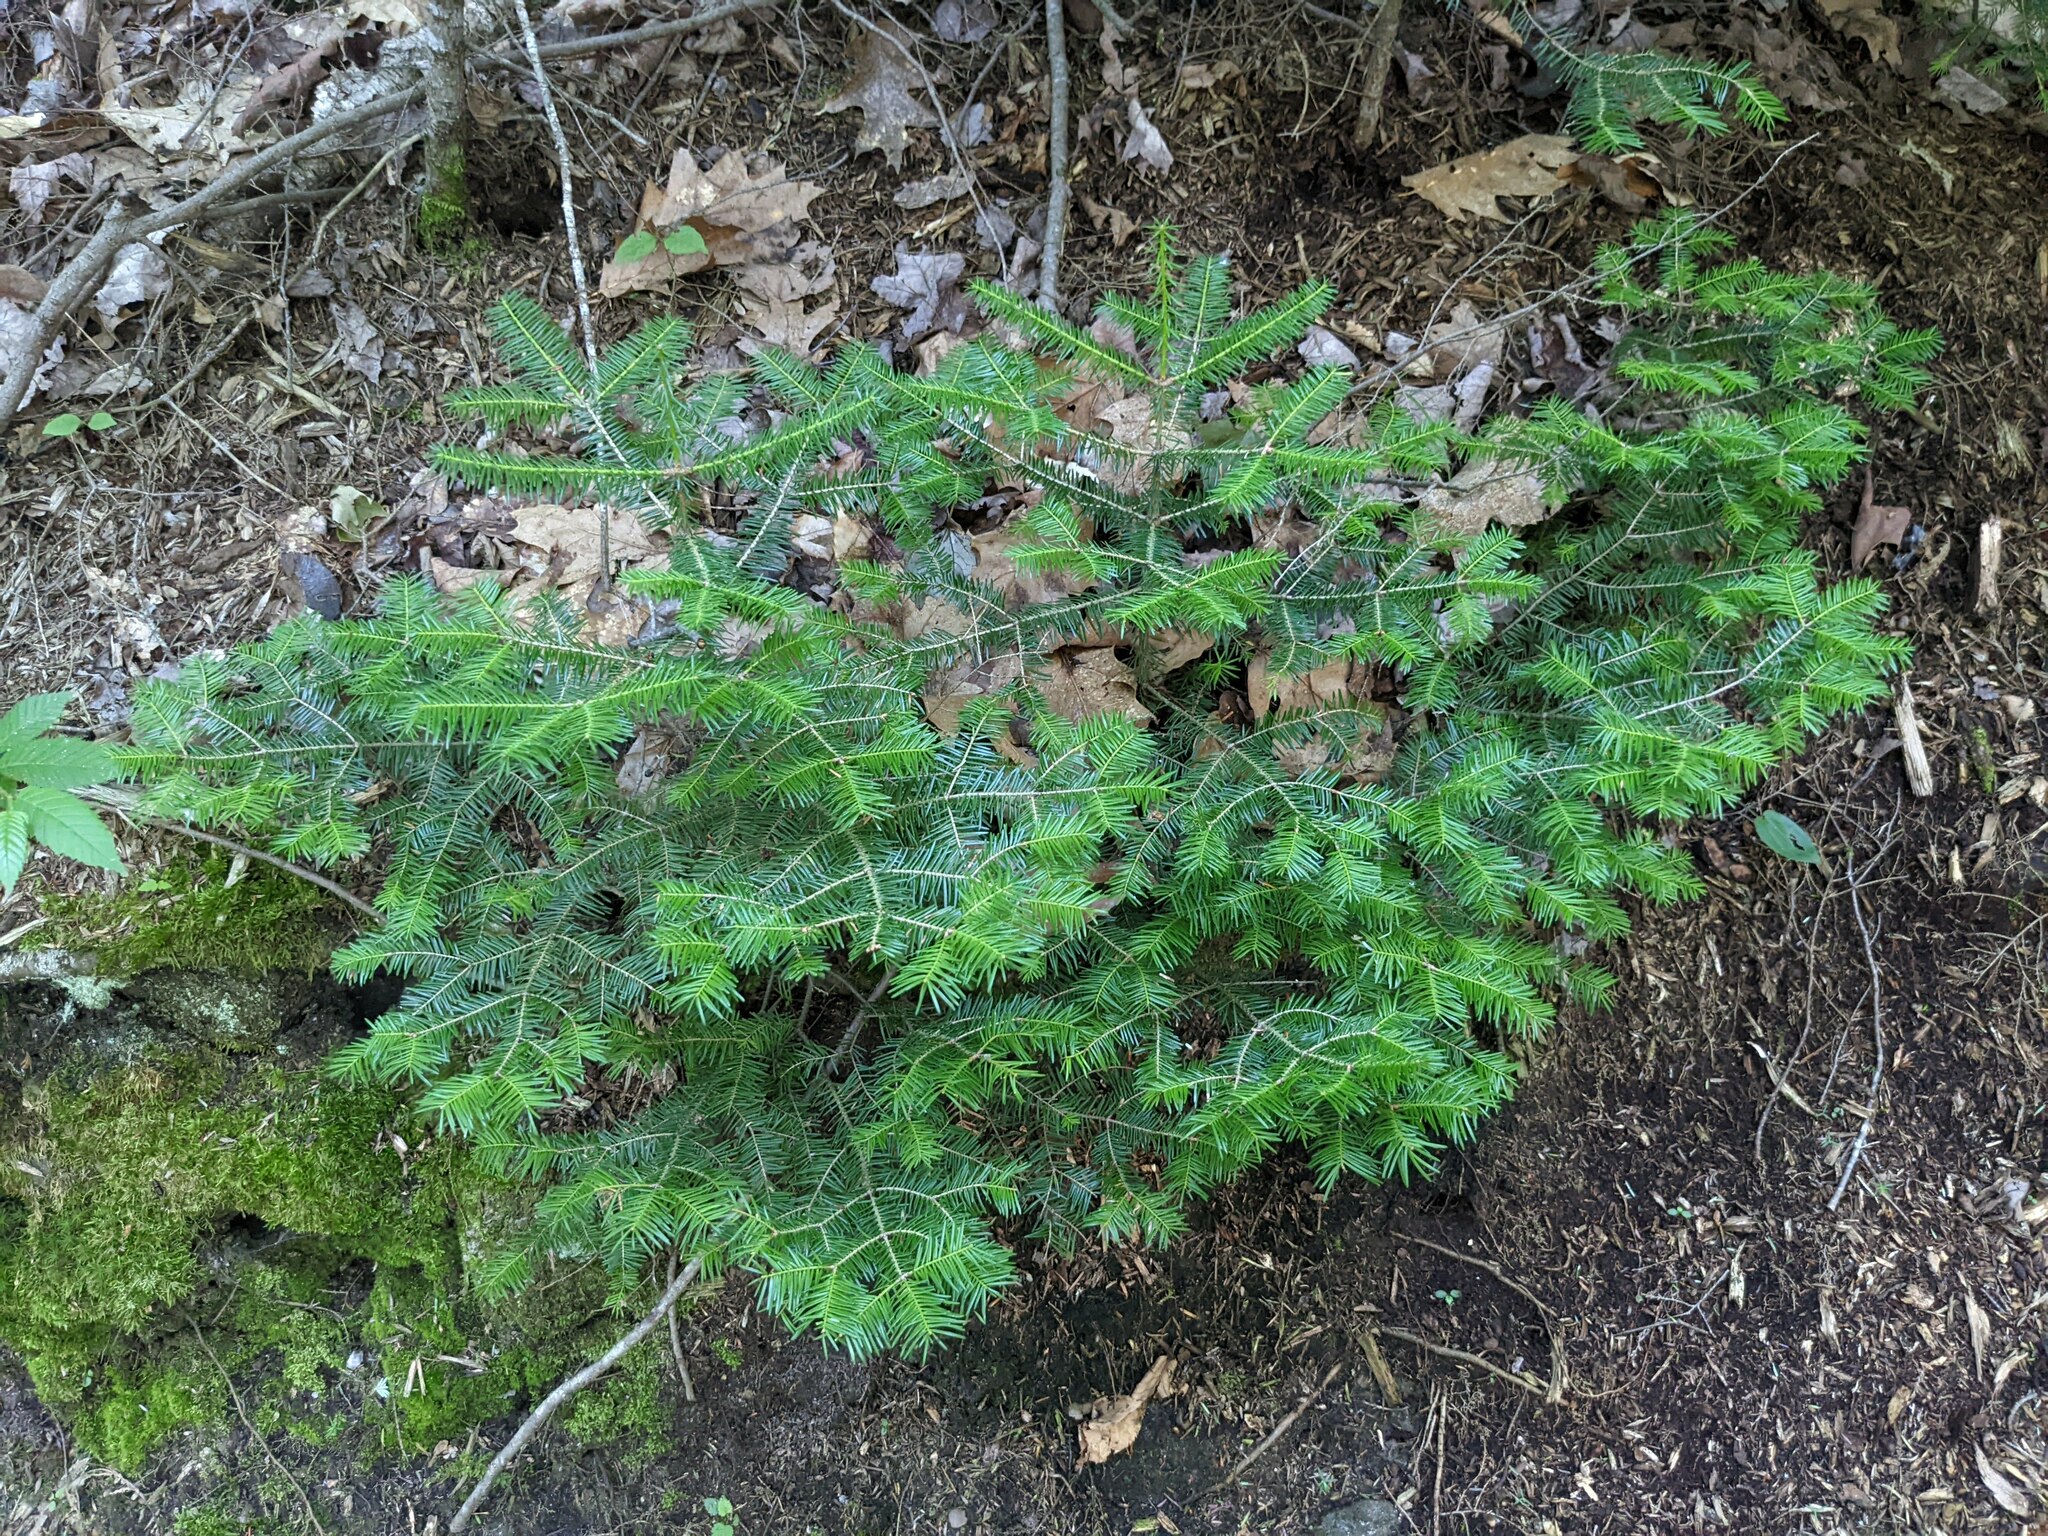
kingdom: Plantae
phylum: Tracheophyta
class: Pinopsida
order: Pinales
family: Pinaceae
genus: Abies
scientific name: Abies balsamea
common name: Balsam fir
